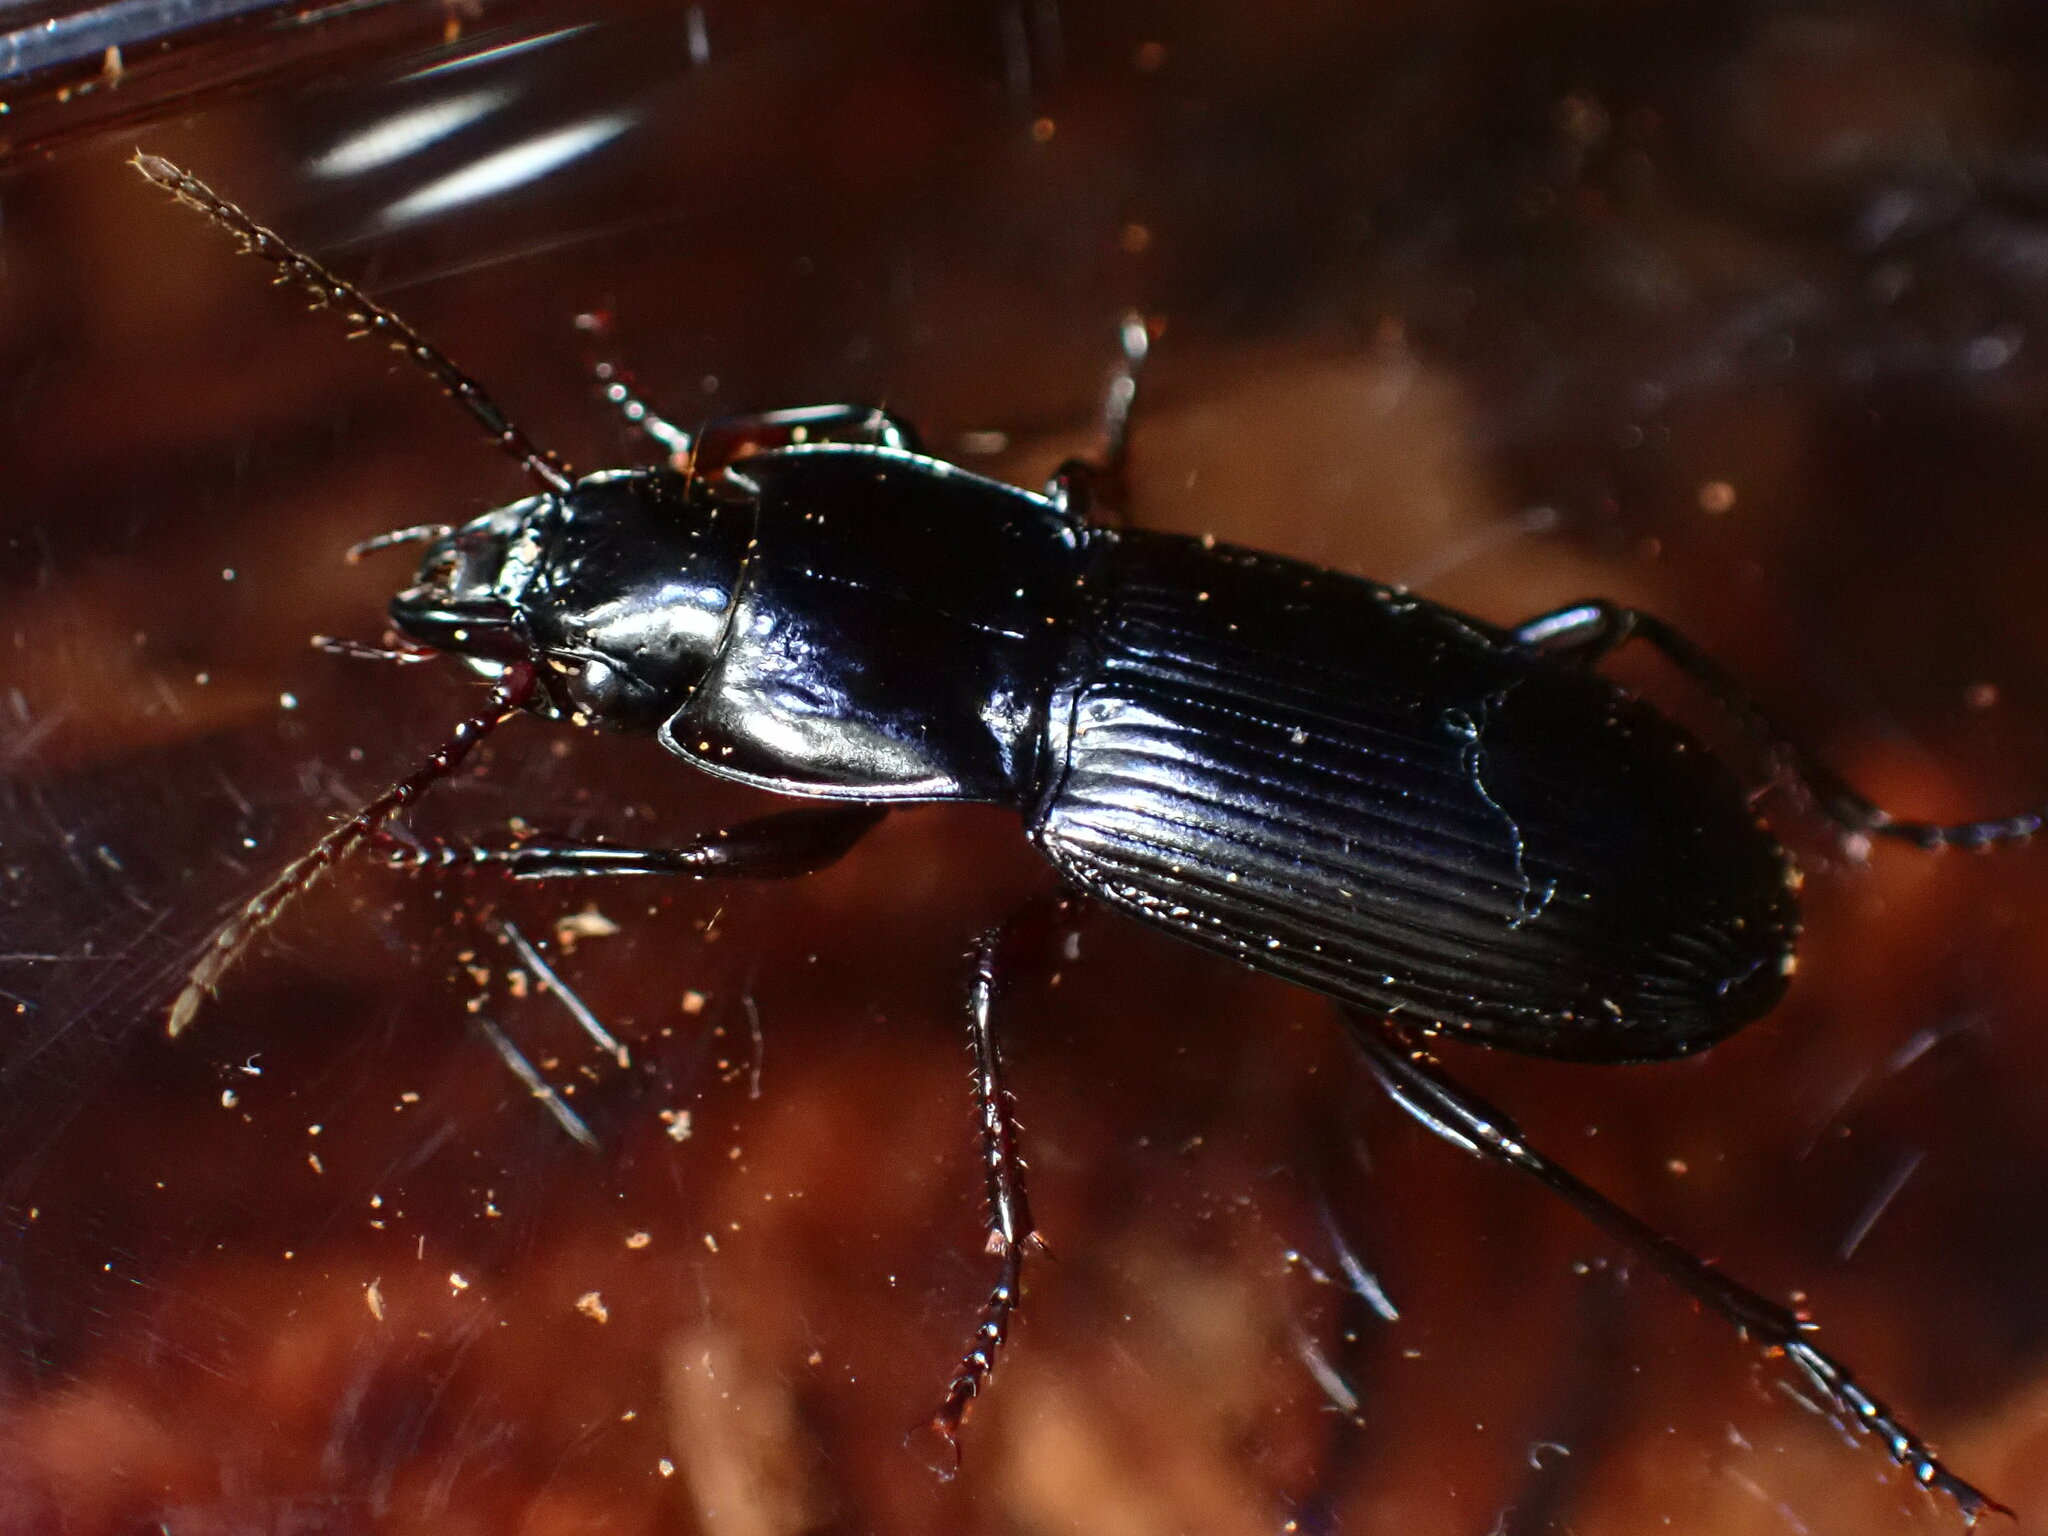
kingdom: Animalia
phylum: Arthropoda
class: Insecta
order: Coleoptera
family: Carabidae
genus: Pterostichus
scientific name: Pterostichus amethystinus
